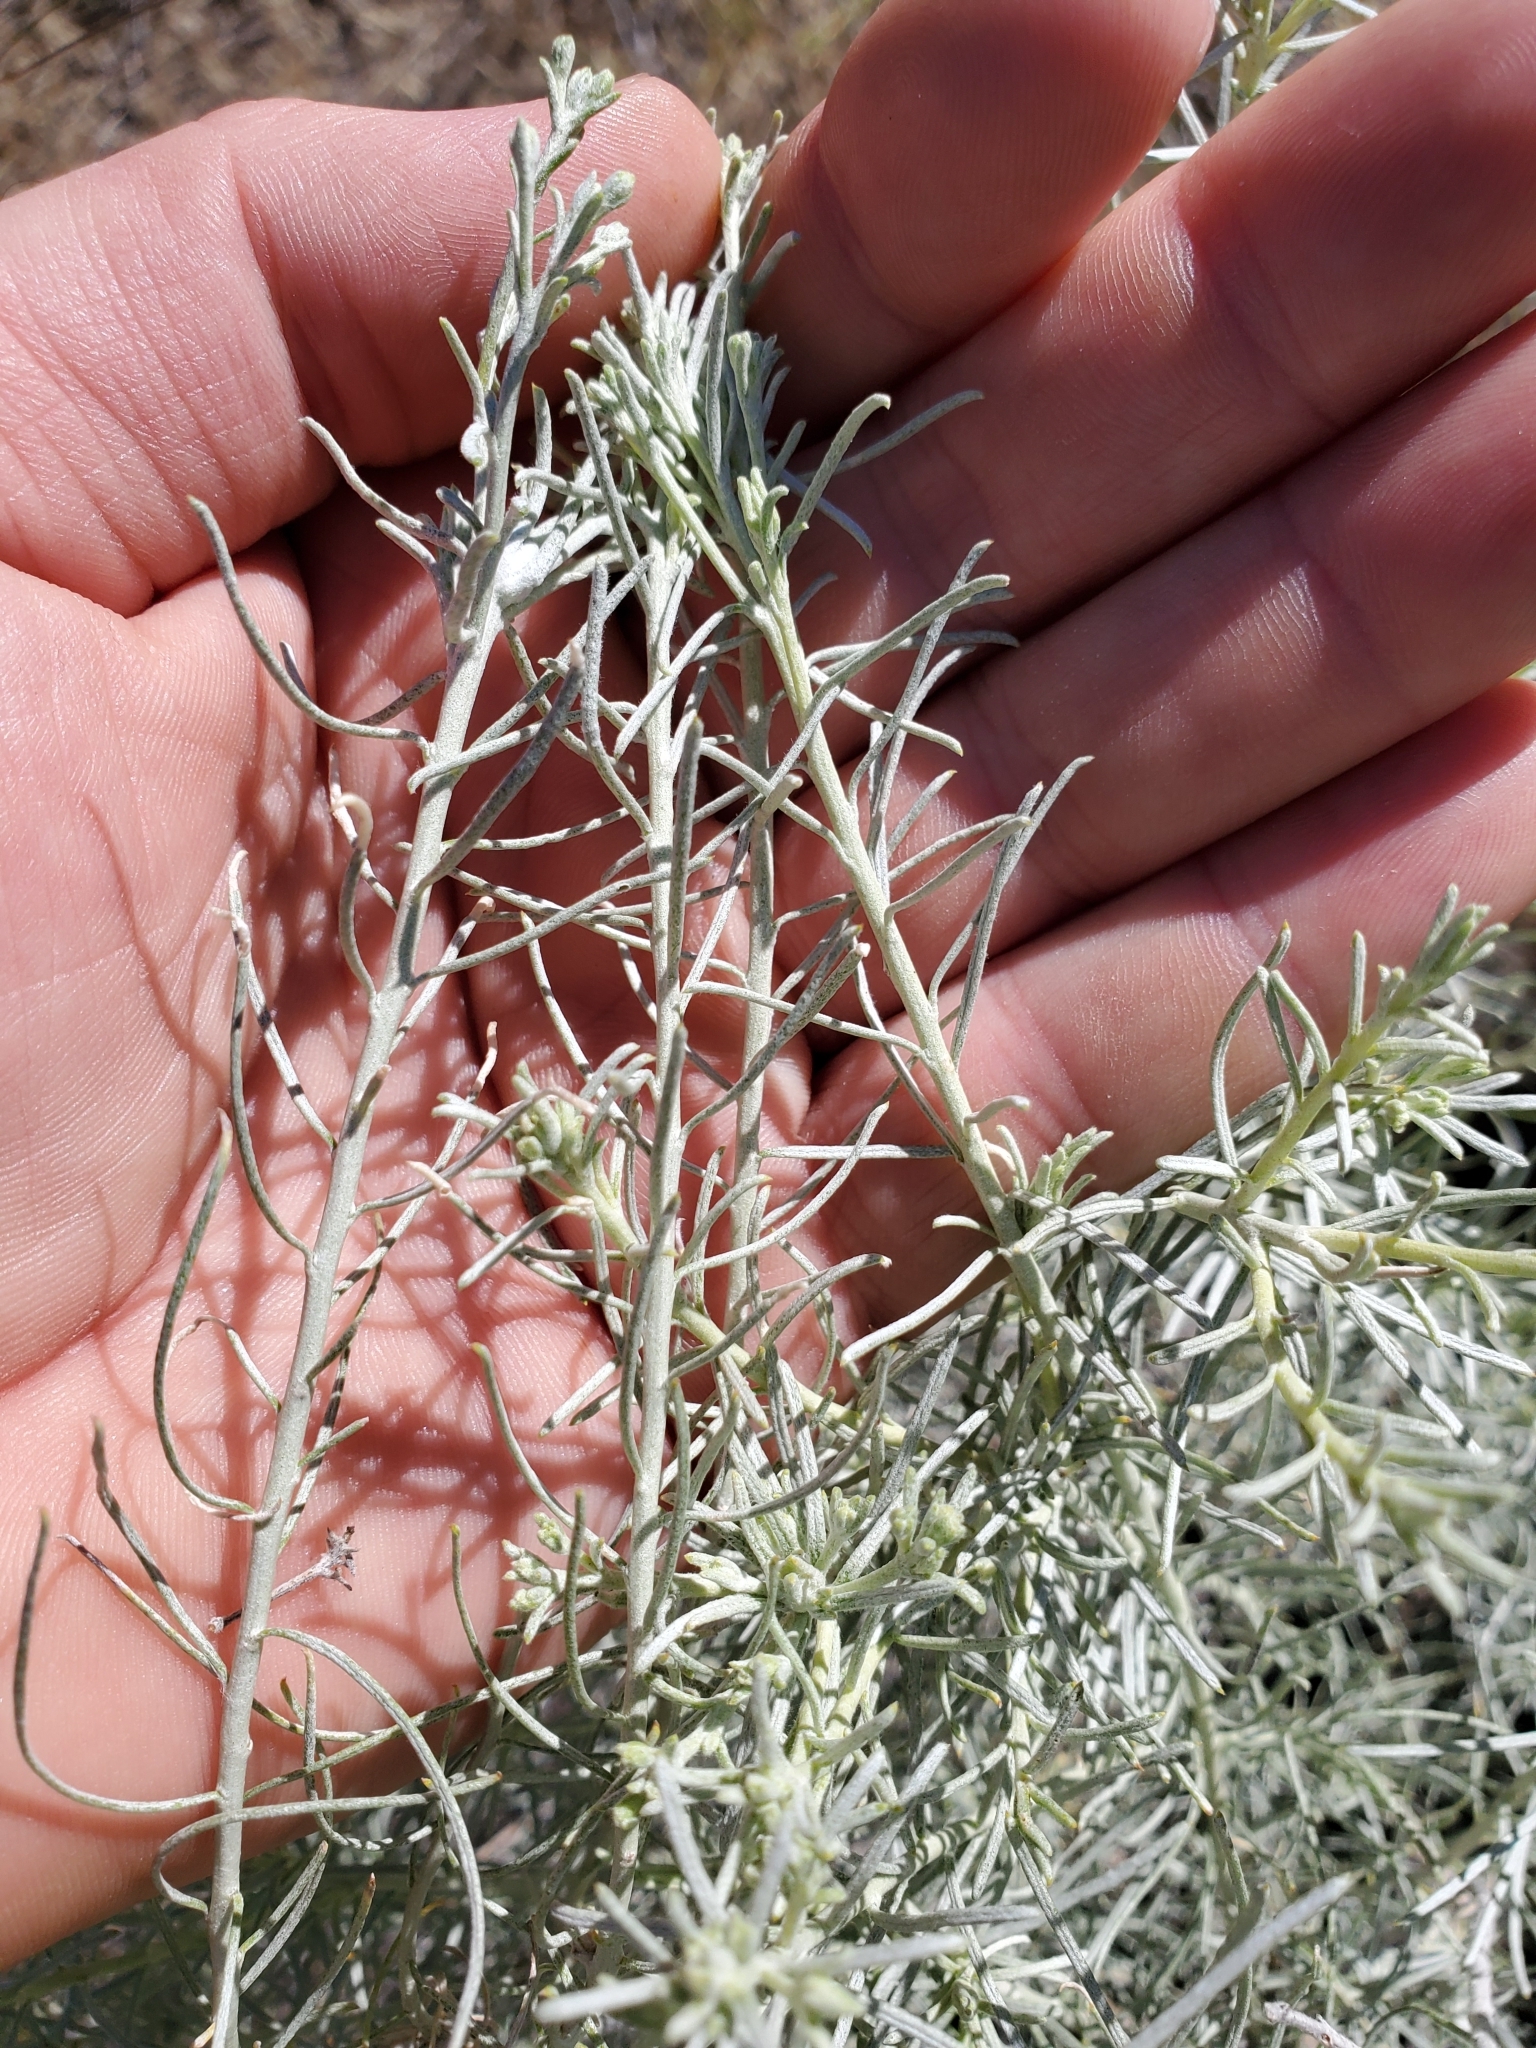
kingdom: Plantae
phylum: Tracheophyta
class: Magnoliopsida
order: Asterales
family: Asteraceae
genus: Ericameria
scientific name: Ericameria nauseosa
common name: Rubber rabbitbrush
